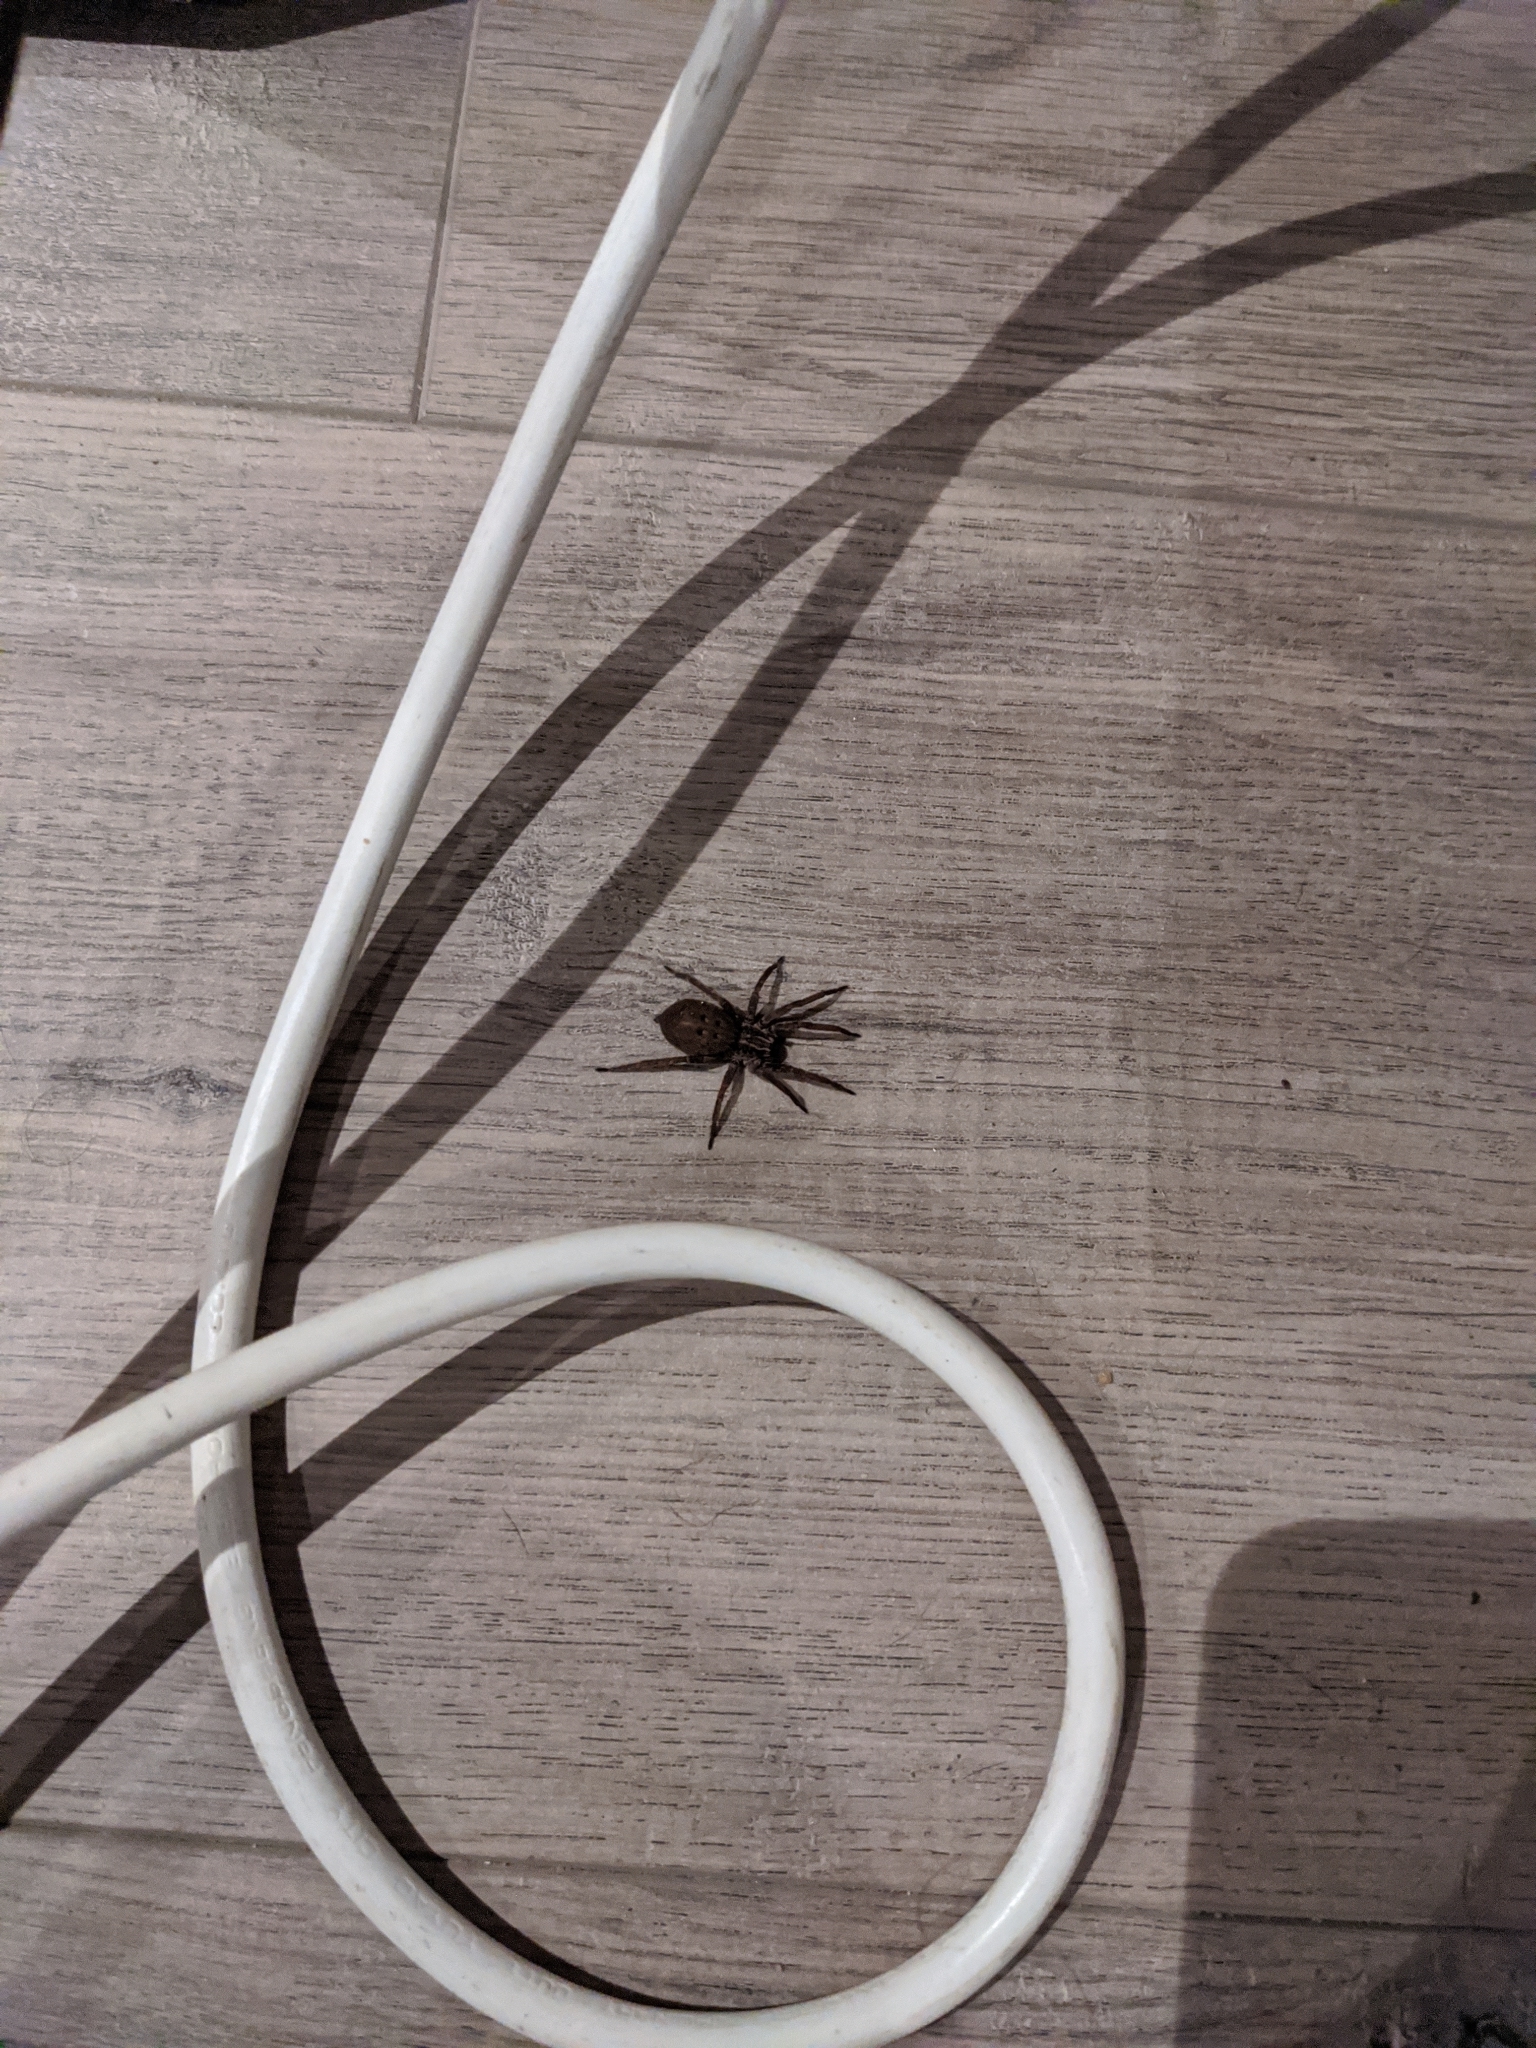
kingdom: Animalia
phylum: Arthropoda
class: Arachnida
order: Araneae
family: Miturgidae
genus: Mituliodon
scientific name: Mituliodon tarantulinus
